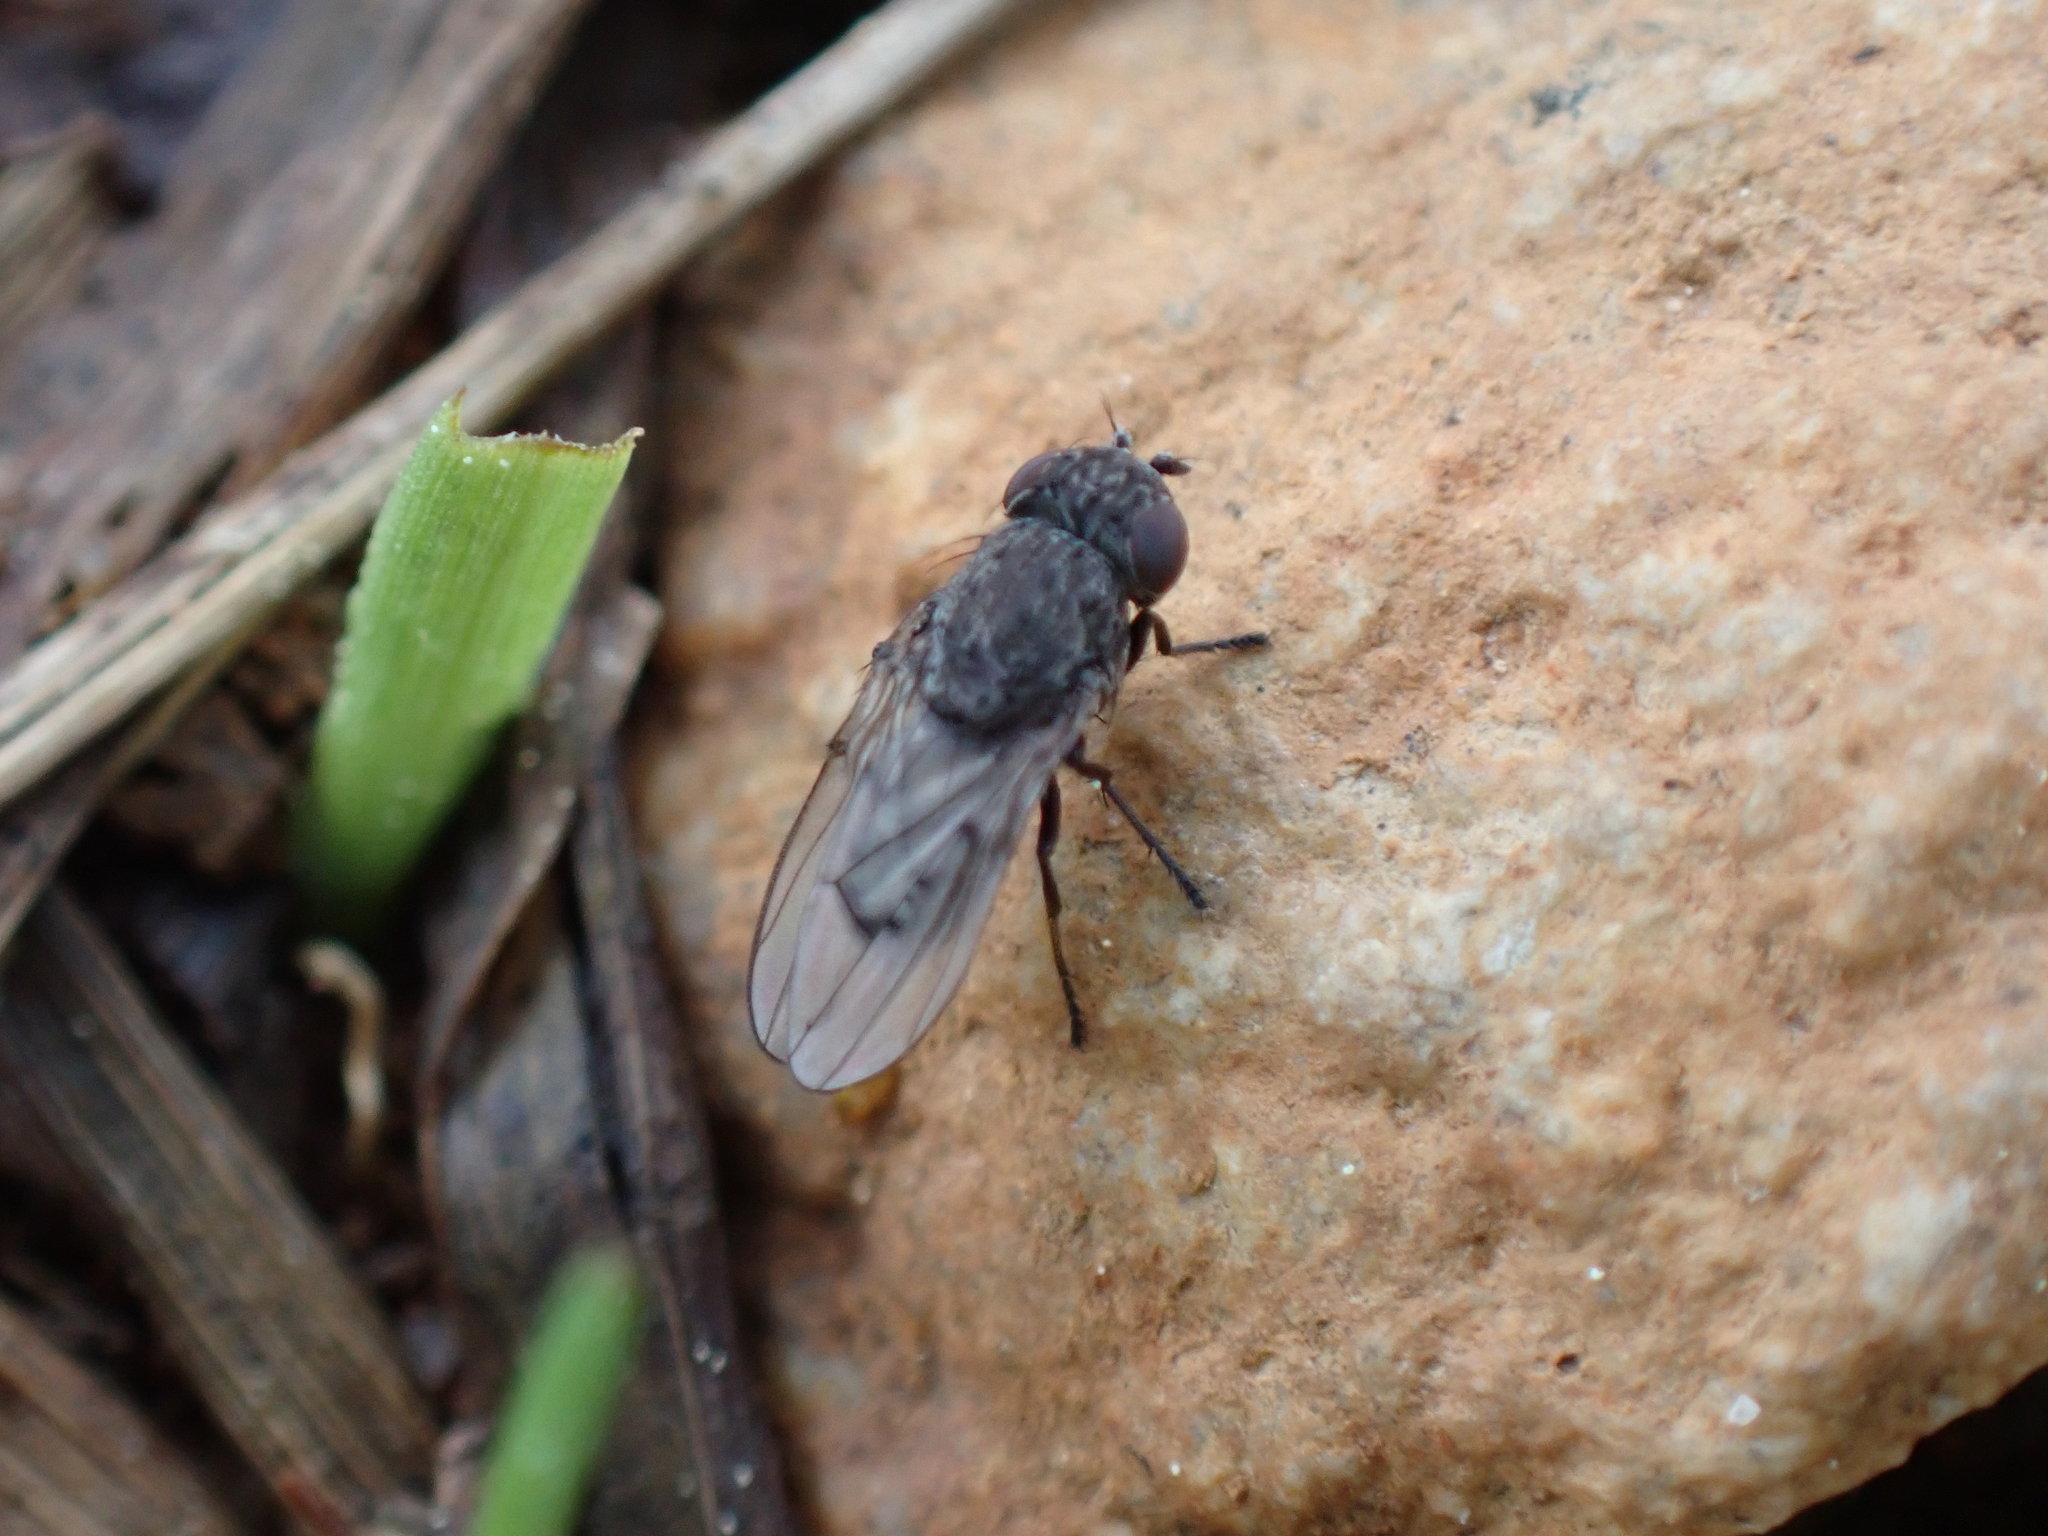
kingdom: Animalia
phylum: Arthropoda
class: Insecta
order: Diptera
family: Ephydridae
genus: Paralimna
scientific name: Paralimna punctipennis
